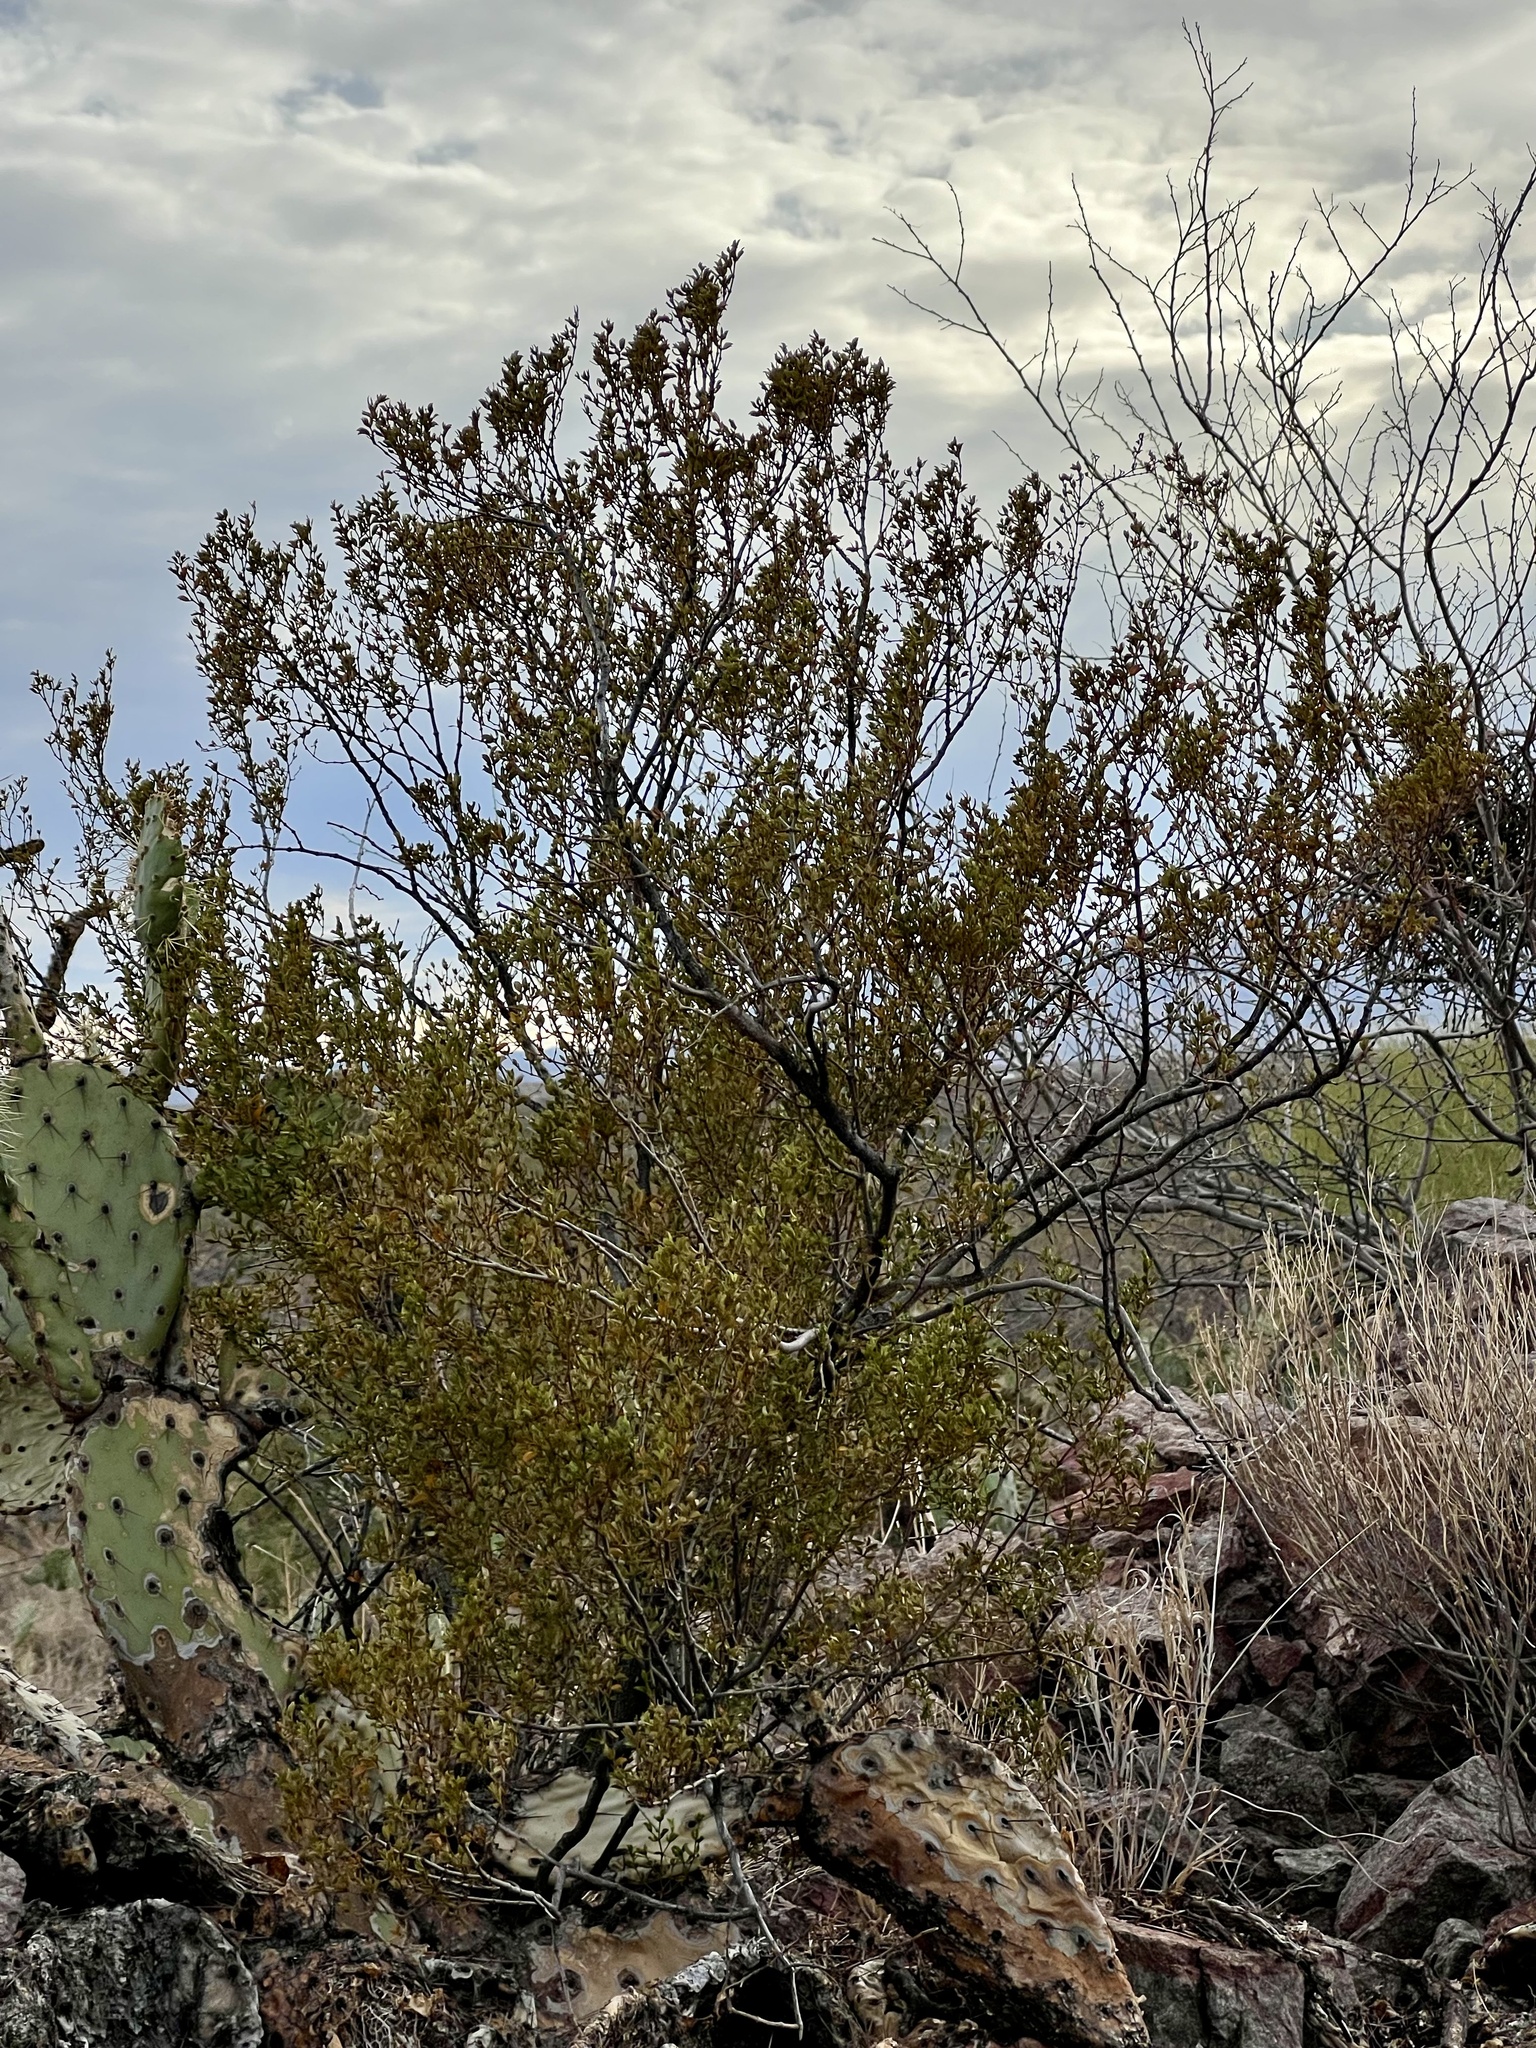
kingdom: Plantae
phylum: Tracheophyta
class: Magnoliopsida
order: Zygophyllales
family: Zygophyllaceae
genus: Larrea
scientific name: Larrea tridentata
